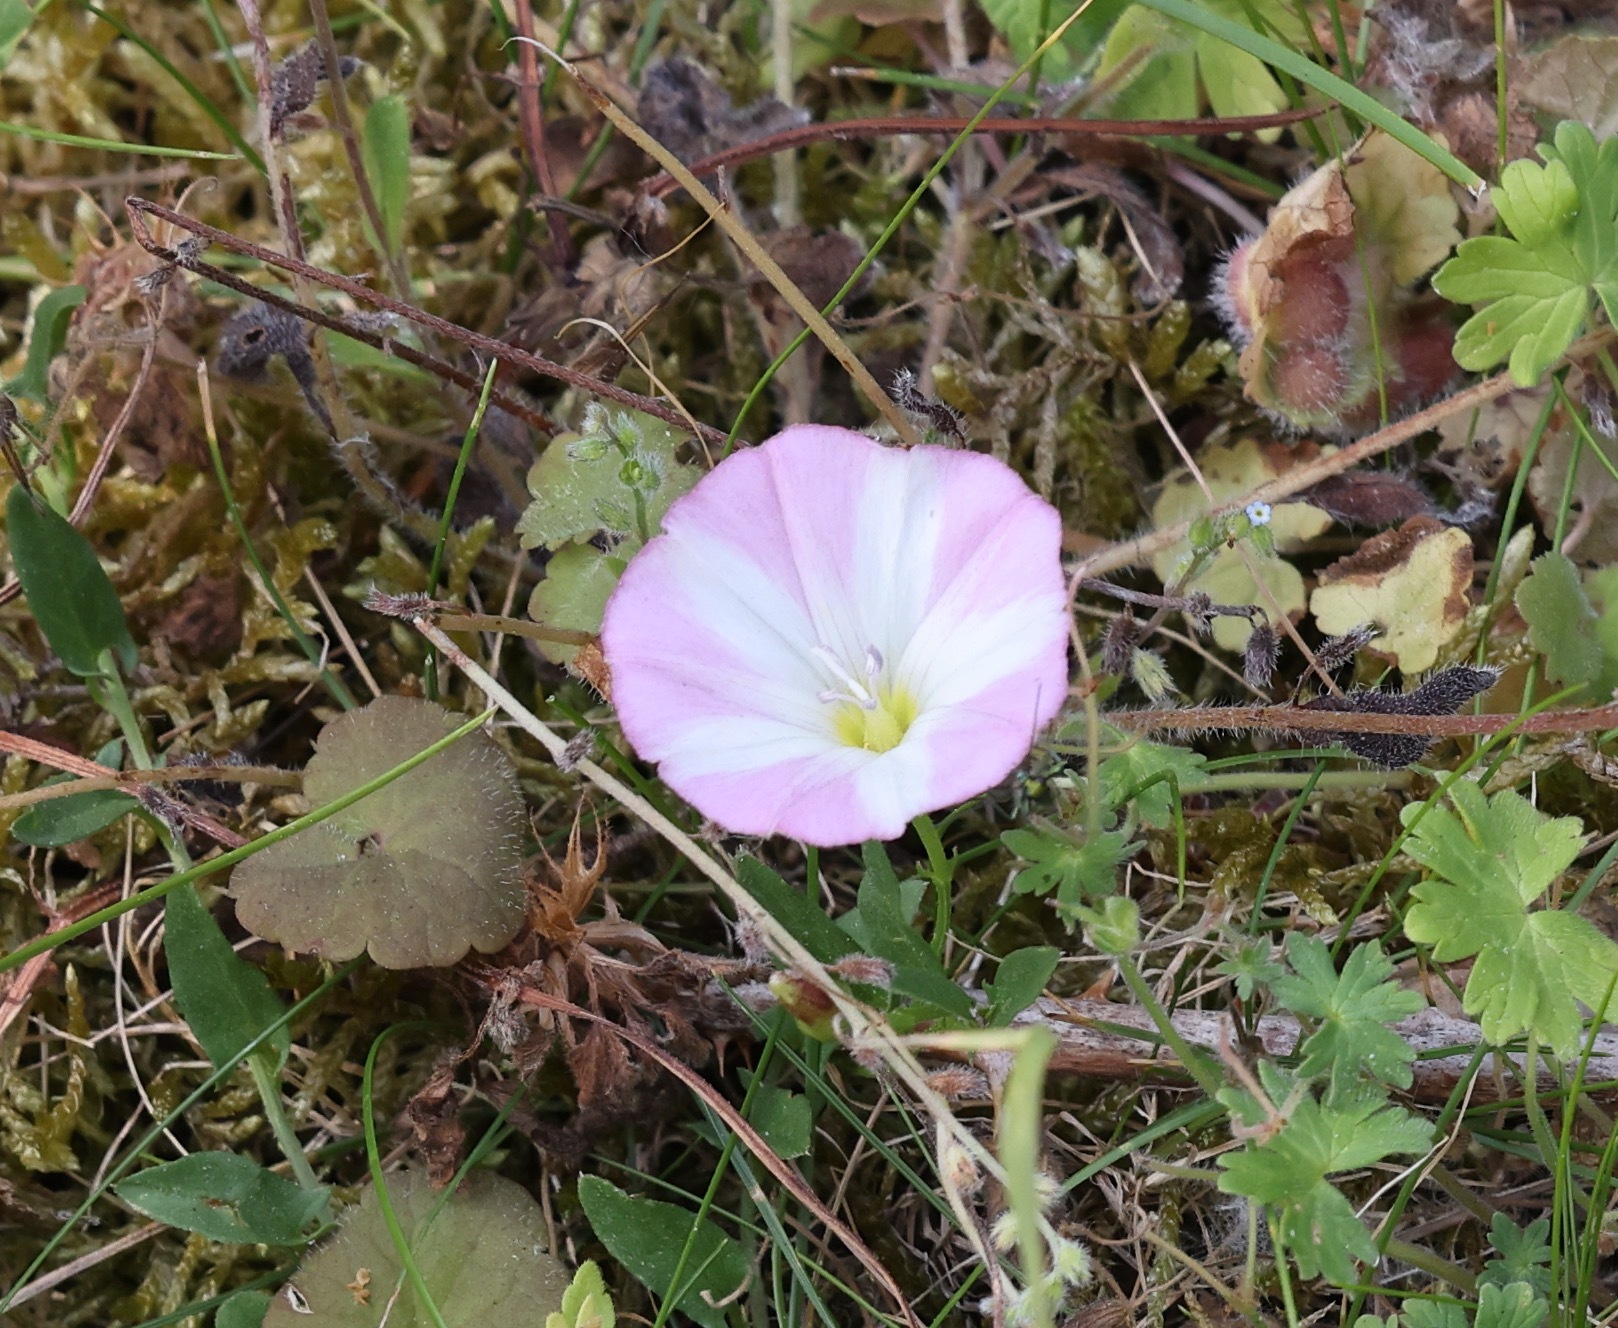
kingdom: Plantae
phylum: Tracheophyta
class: Magnoliopsida
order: Solanales
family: Convolvulaceae
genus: Convolvulus
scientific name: Convolvulus arvensis
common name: Field bindweed
